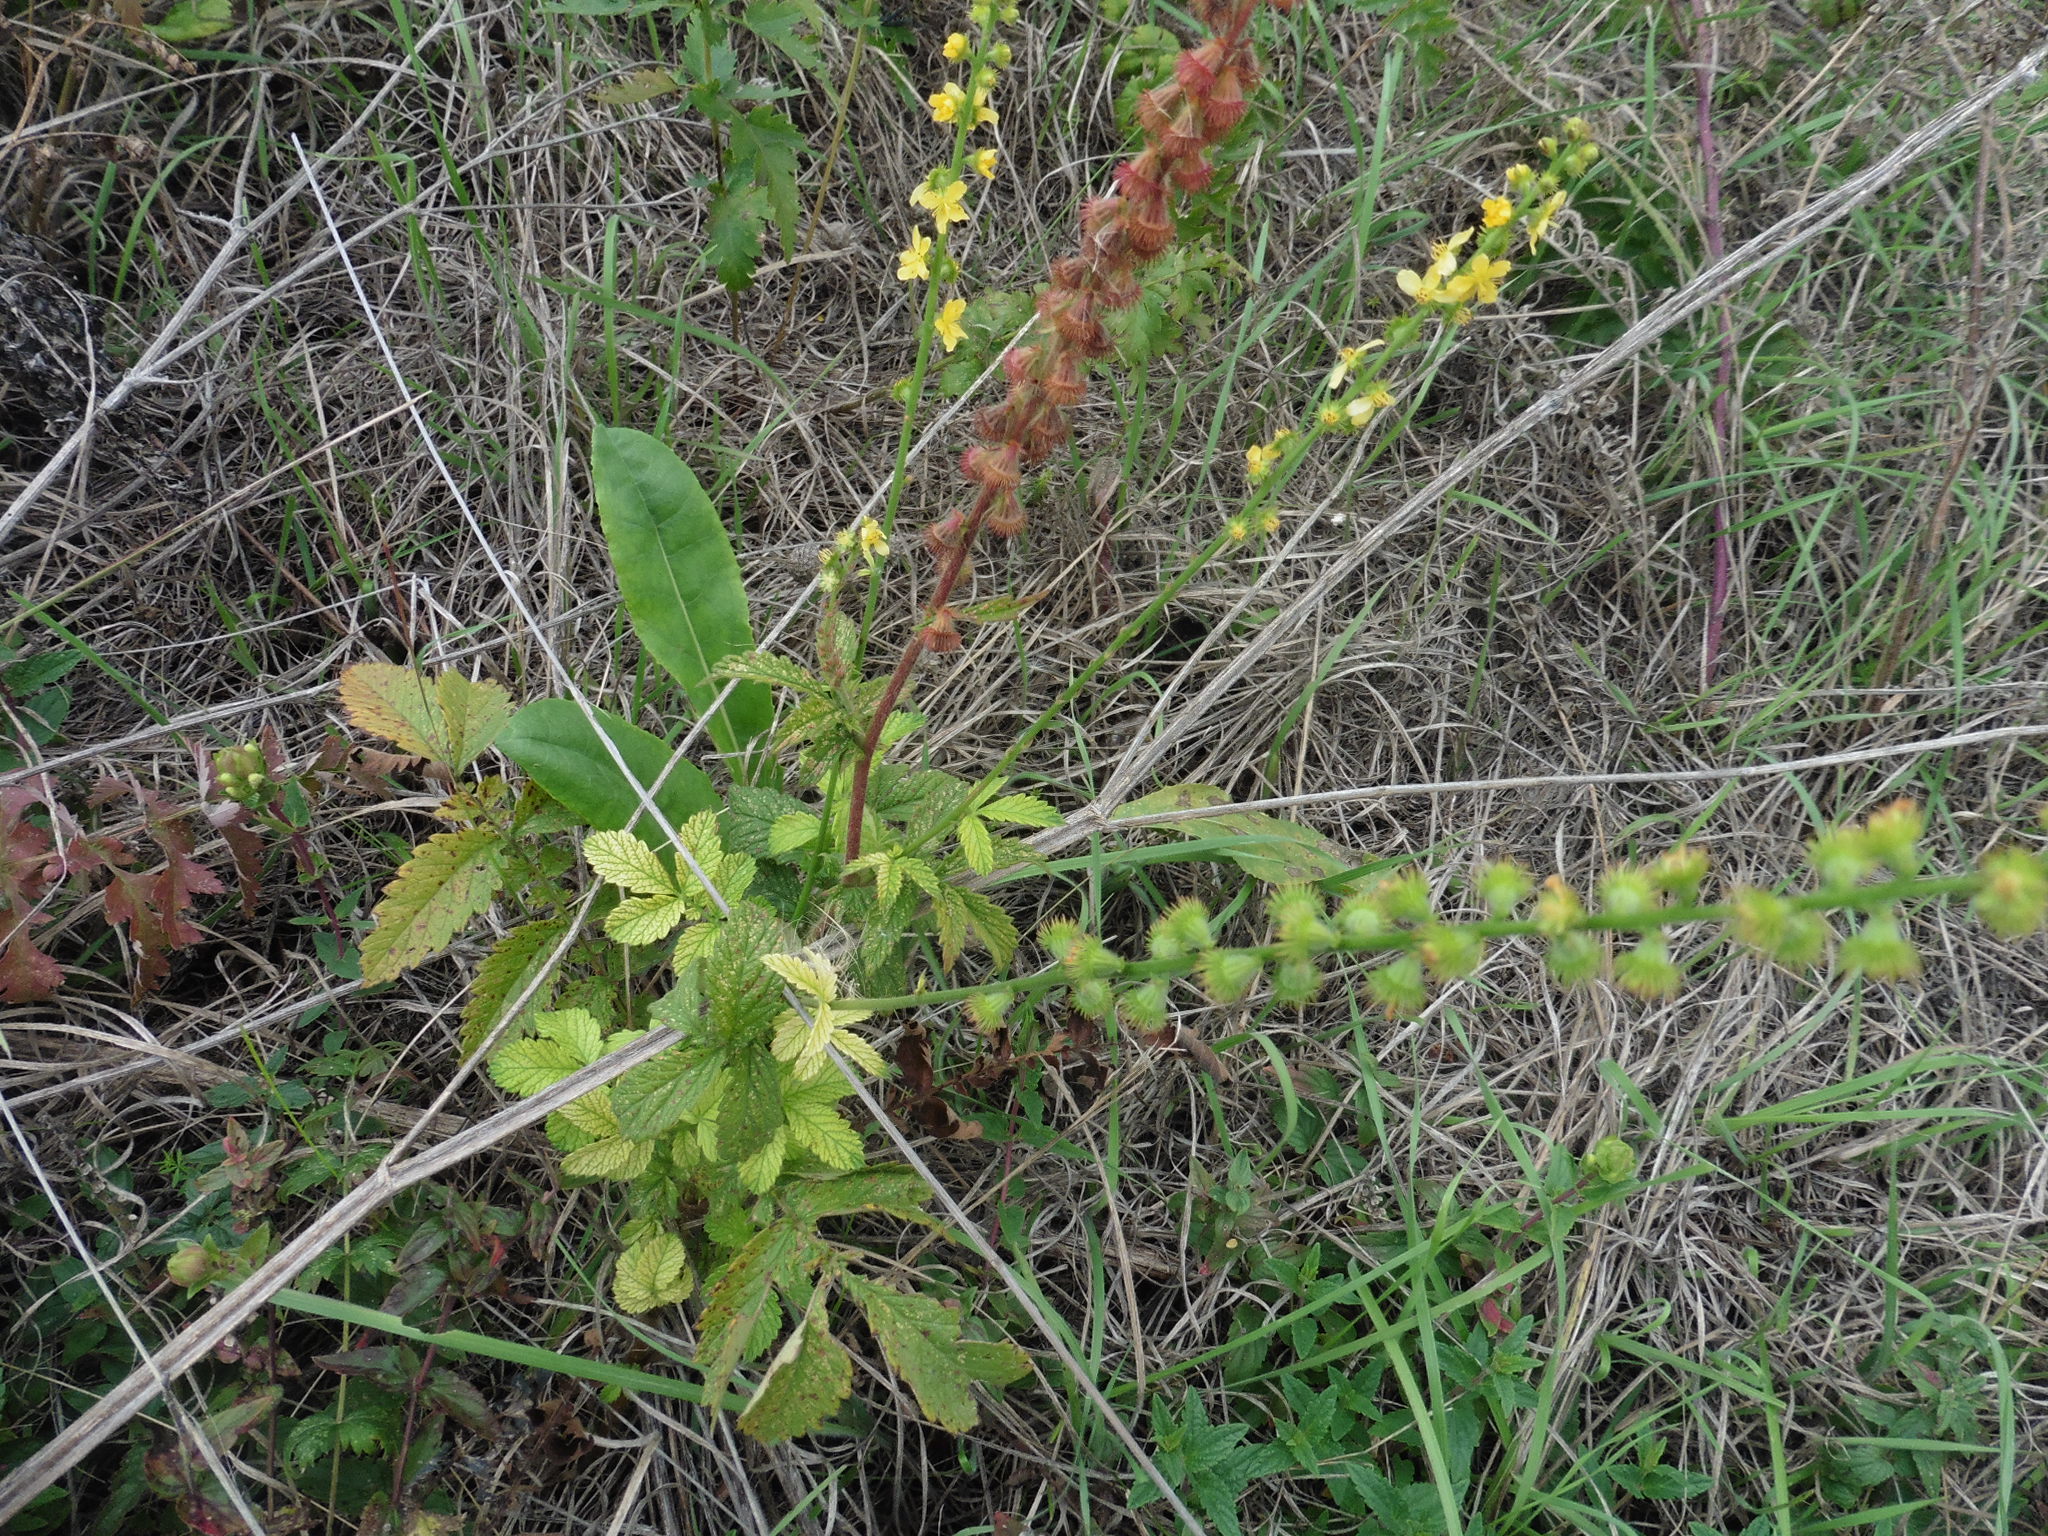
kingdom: Plantae
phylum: Tracheophyta
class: Magnoliopsida
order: Rosales
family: Rosaceae
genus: Agrimonia
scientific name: Agrimonia eupatoria
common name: Agrimony
